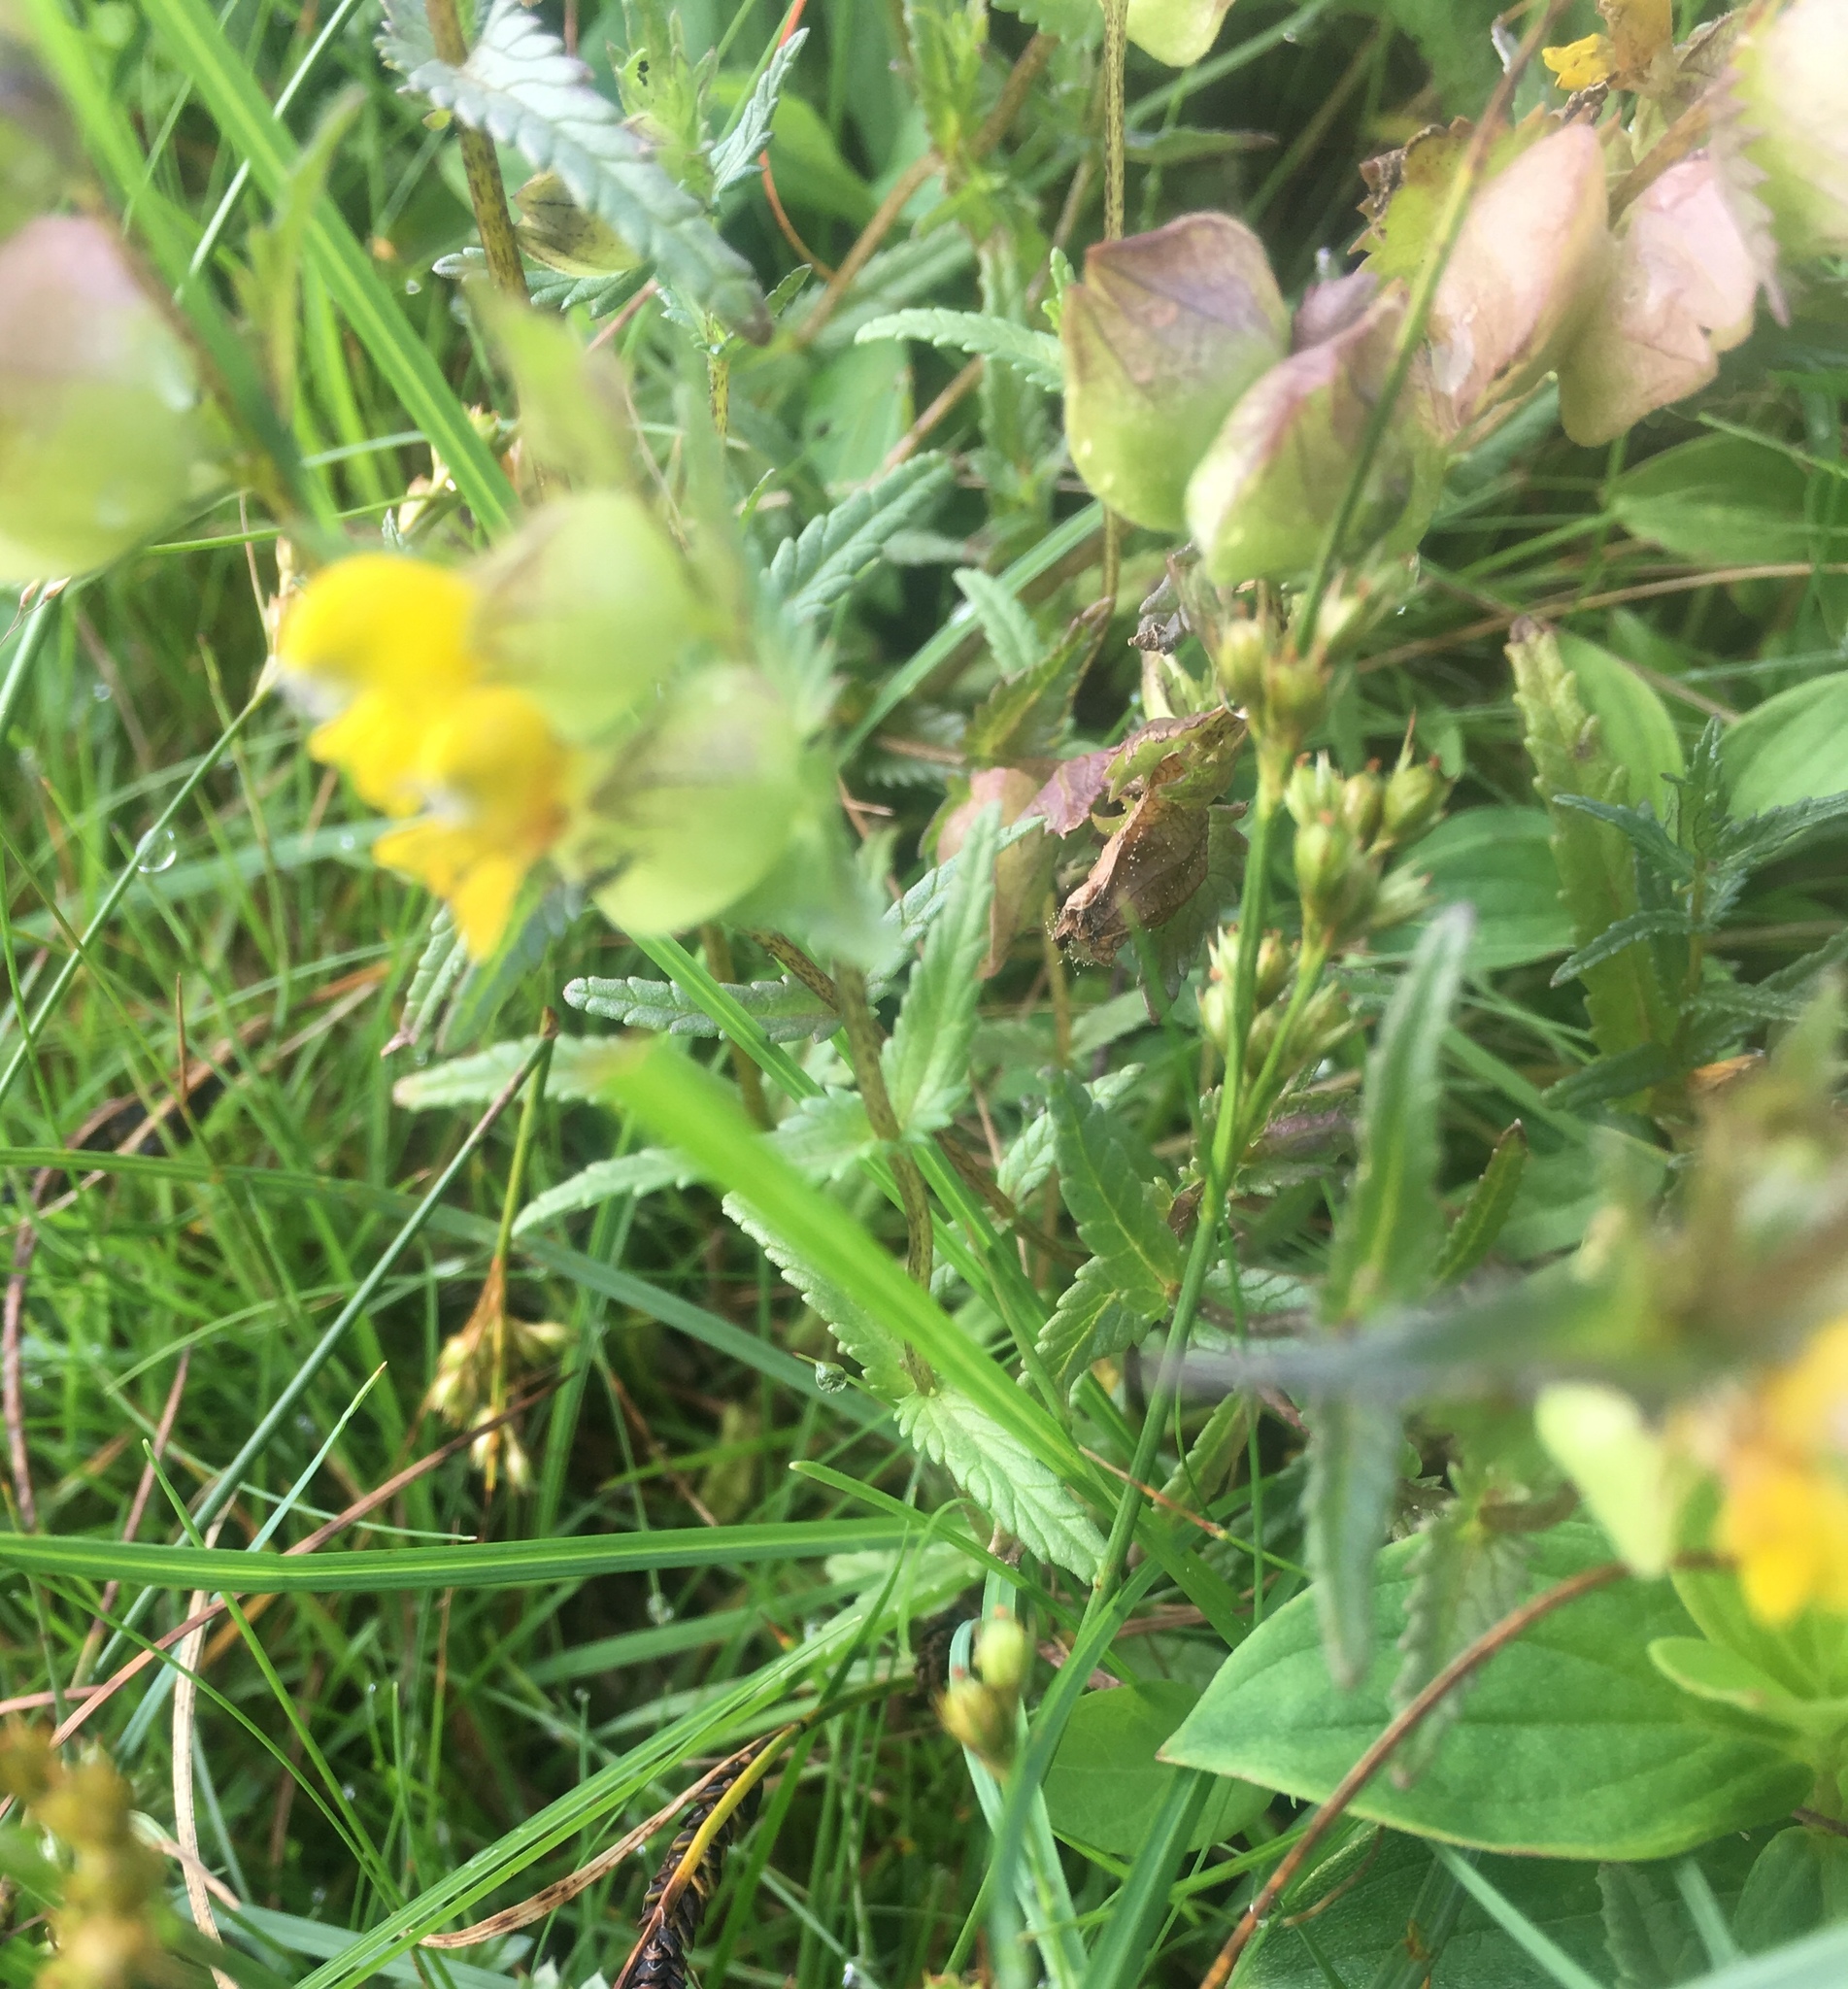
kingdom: Plantae
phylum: Tracheophyta
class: Magnoliopsida
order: Lamiales
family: Orobanchaceae
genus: Rhinanthus
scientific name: Rhinanthus minor
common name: Yellow-rattle
